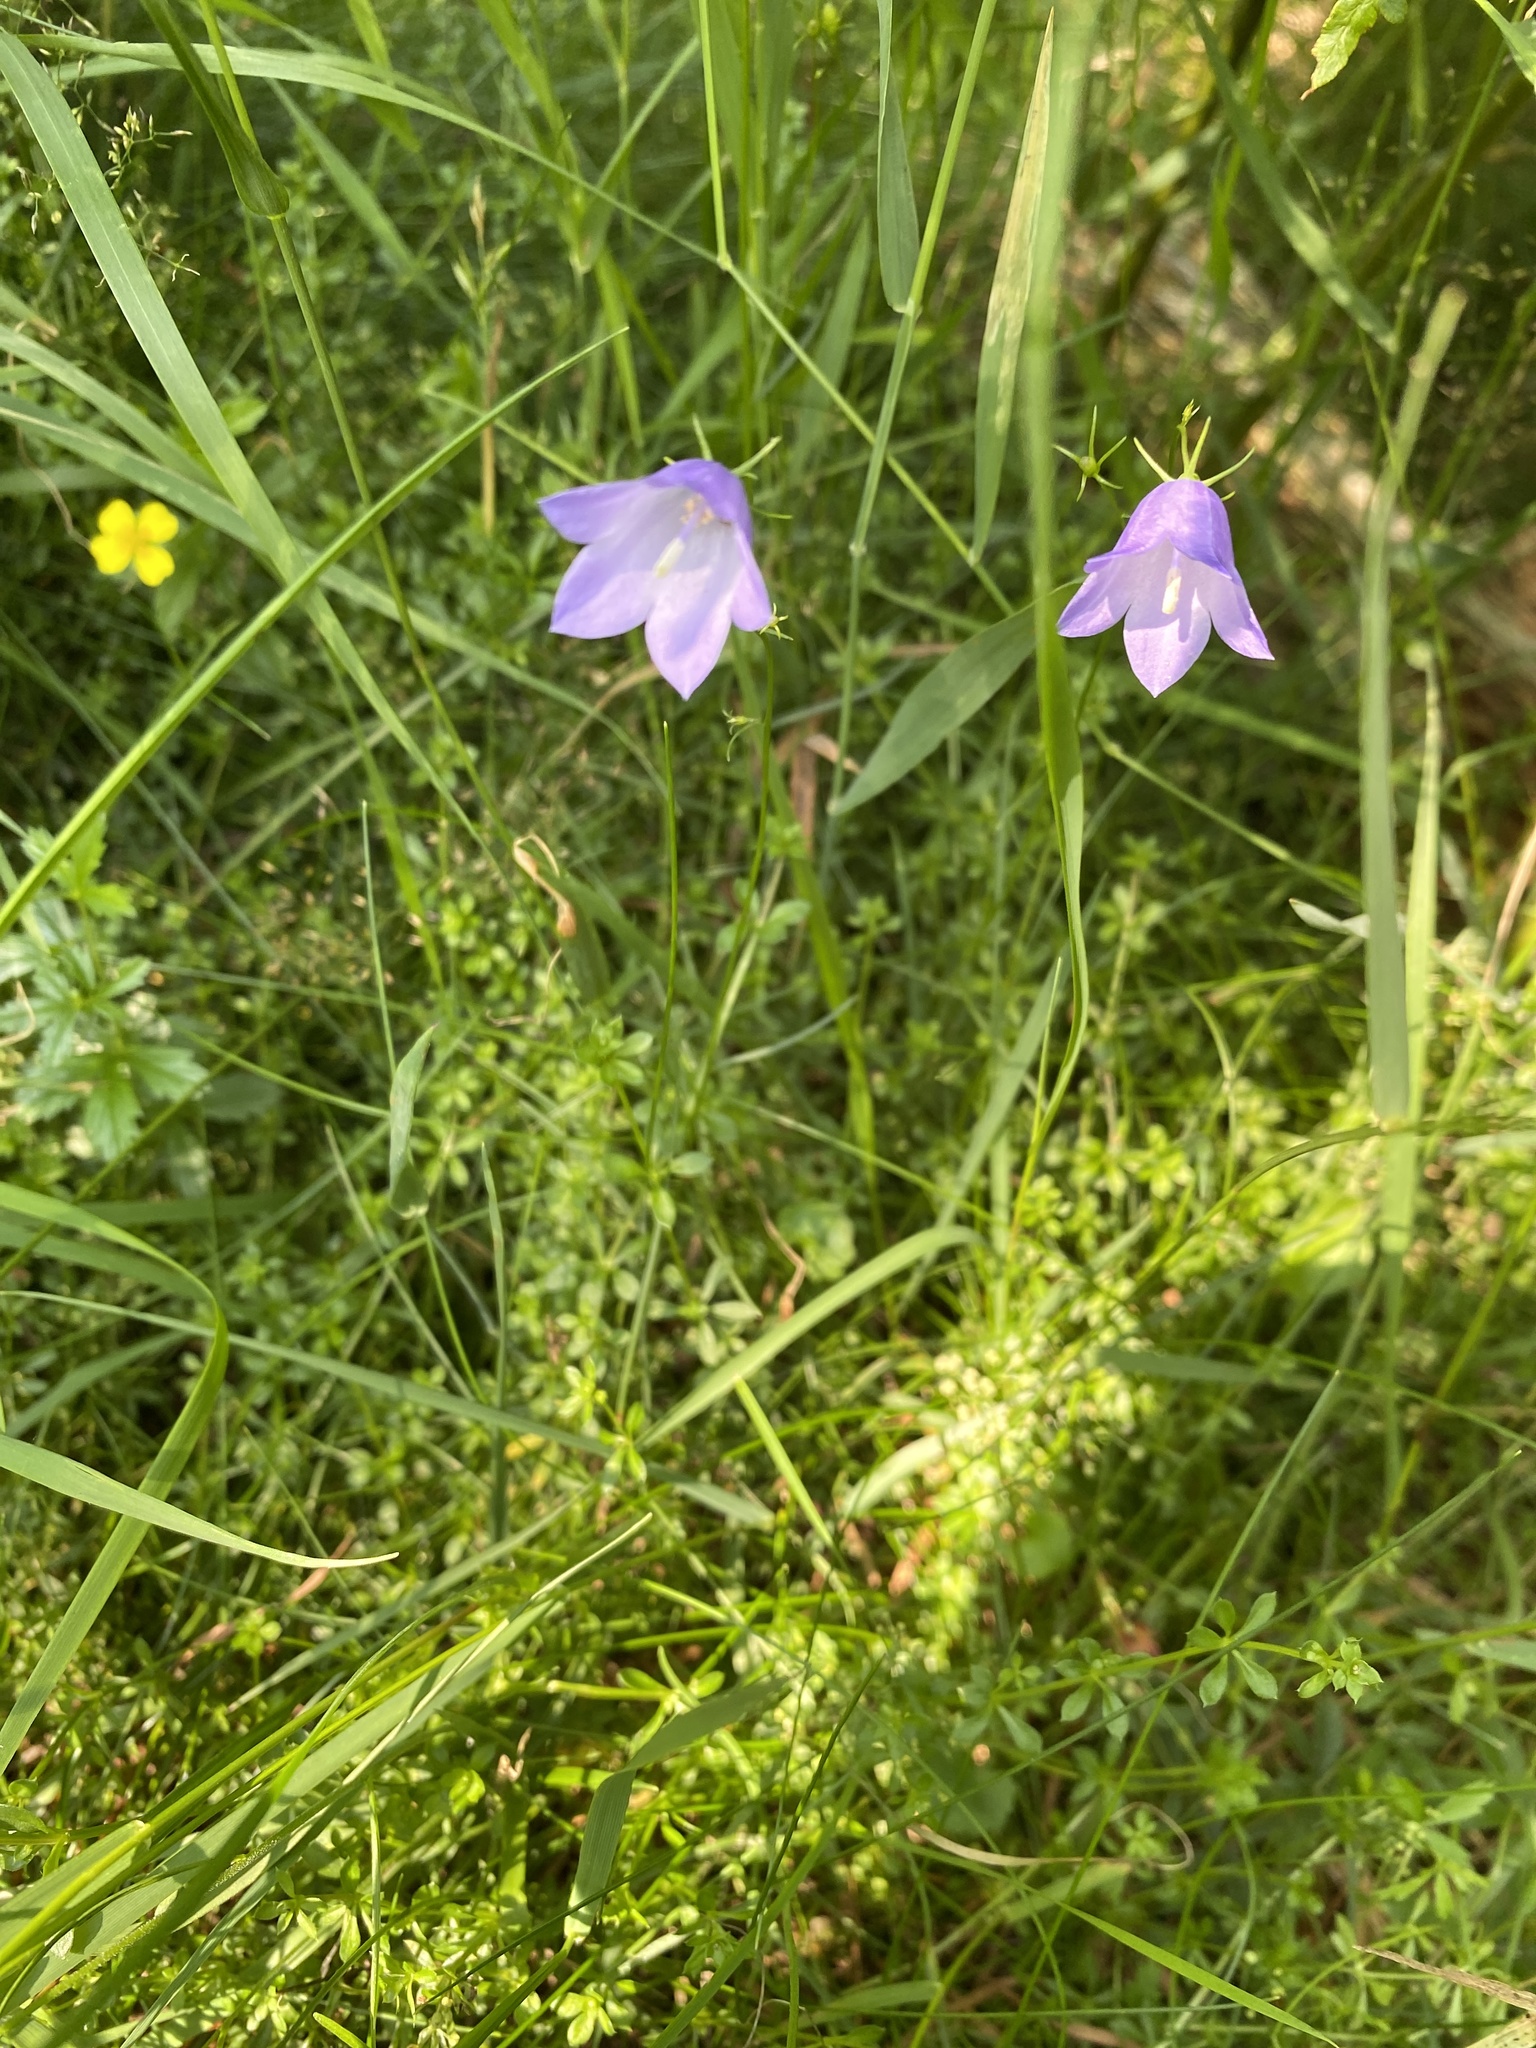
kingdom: Plantae
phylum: Tracheophyta
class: Magnoliopsida
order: Asterales
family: Campanulaceae
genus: Campanula
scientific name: Campanula rotundifolia
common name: Harebell
